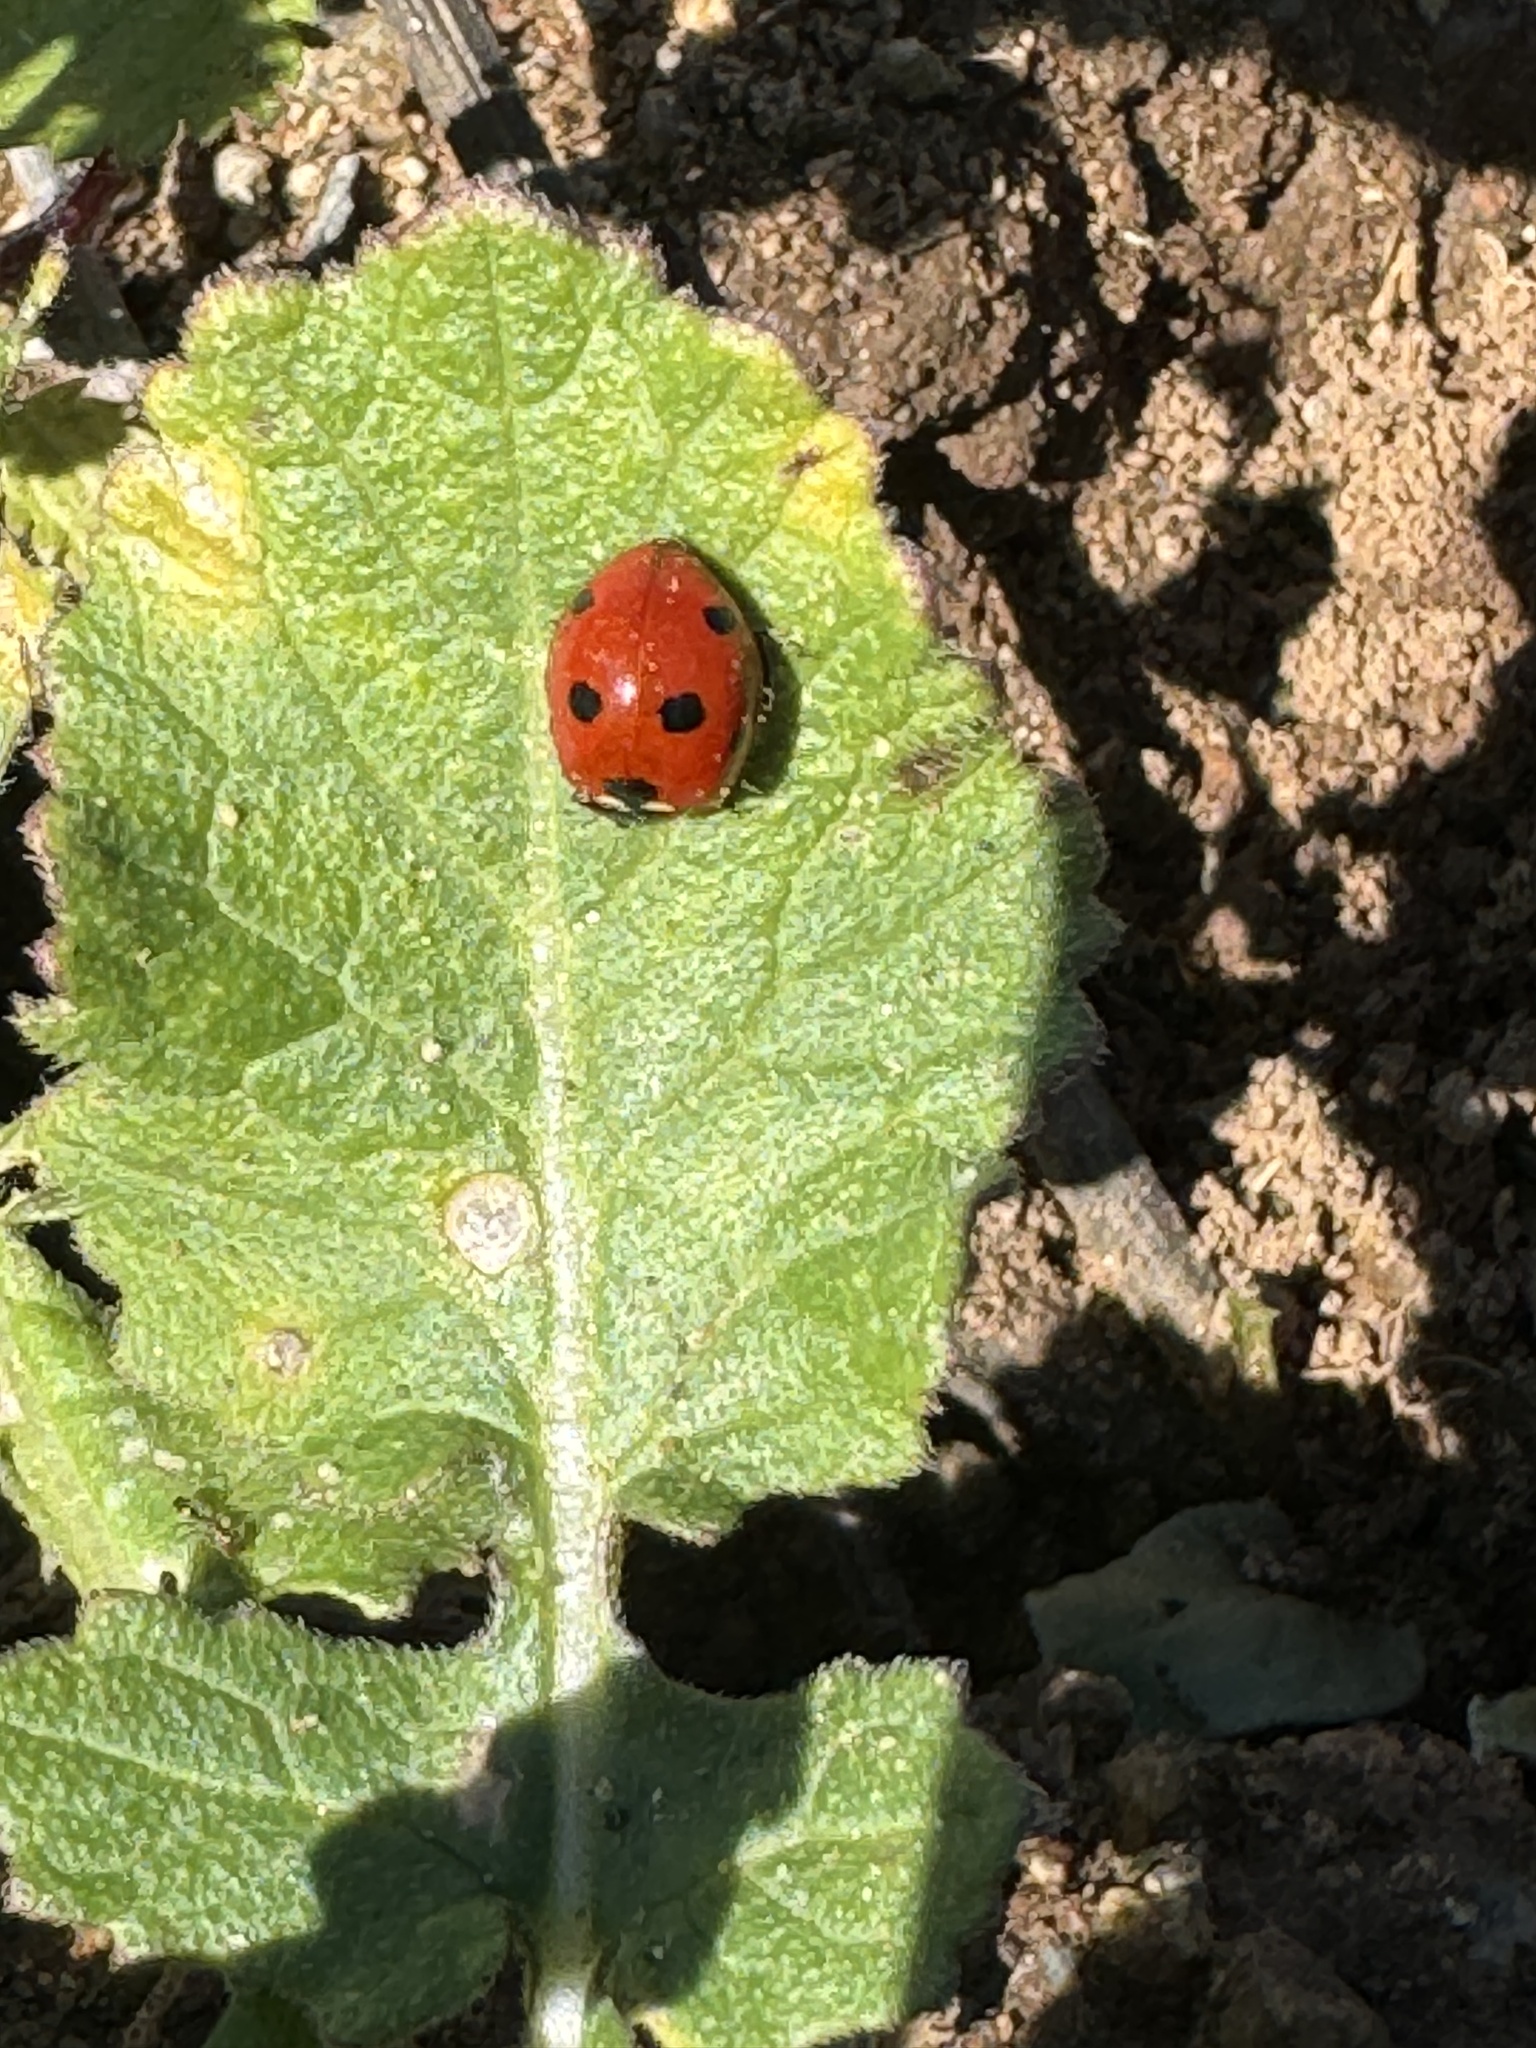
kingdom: Animalia
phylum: Arthropoda
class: Insecta
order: Coleoptera
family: Coccinellidae
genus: Coccinella
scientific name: Coccinella septempunctata
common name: Sevenspotted lady beetle
